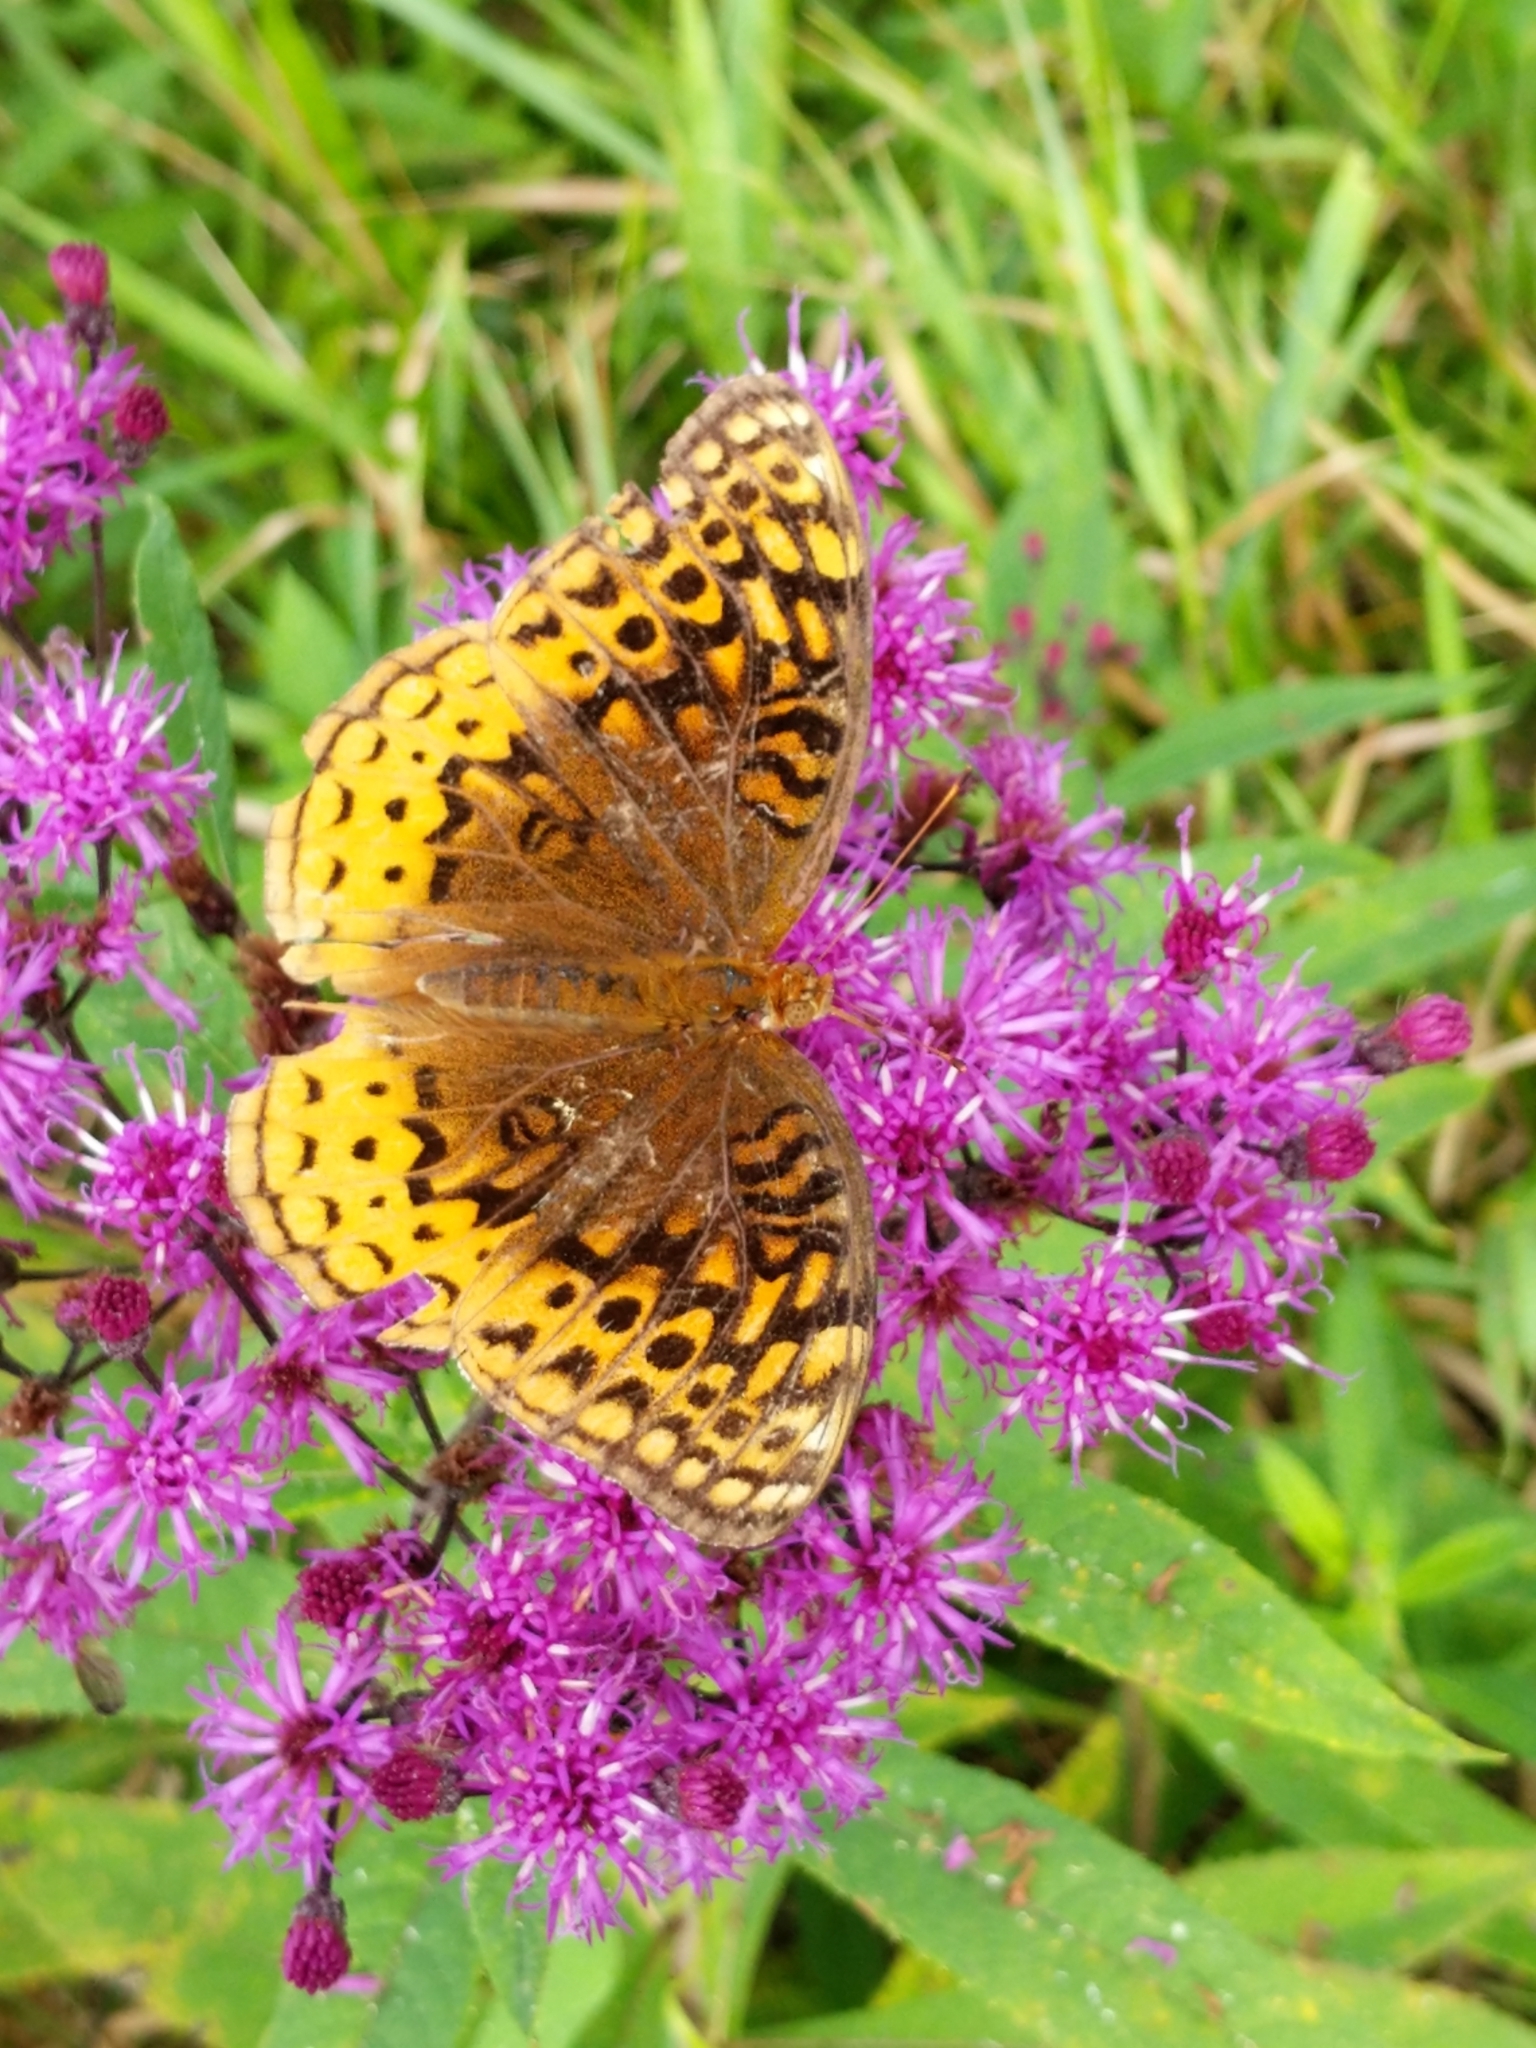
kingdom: Animalia
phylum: Arthropoda
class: Insecta
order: Lepidoptera
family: Nymphalidae
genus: Speyeria
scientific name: Speyeria cybele
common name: Great spangled fritillary
